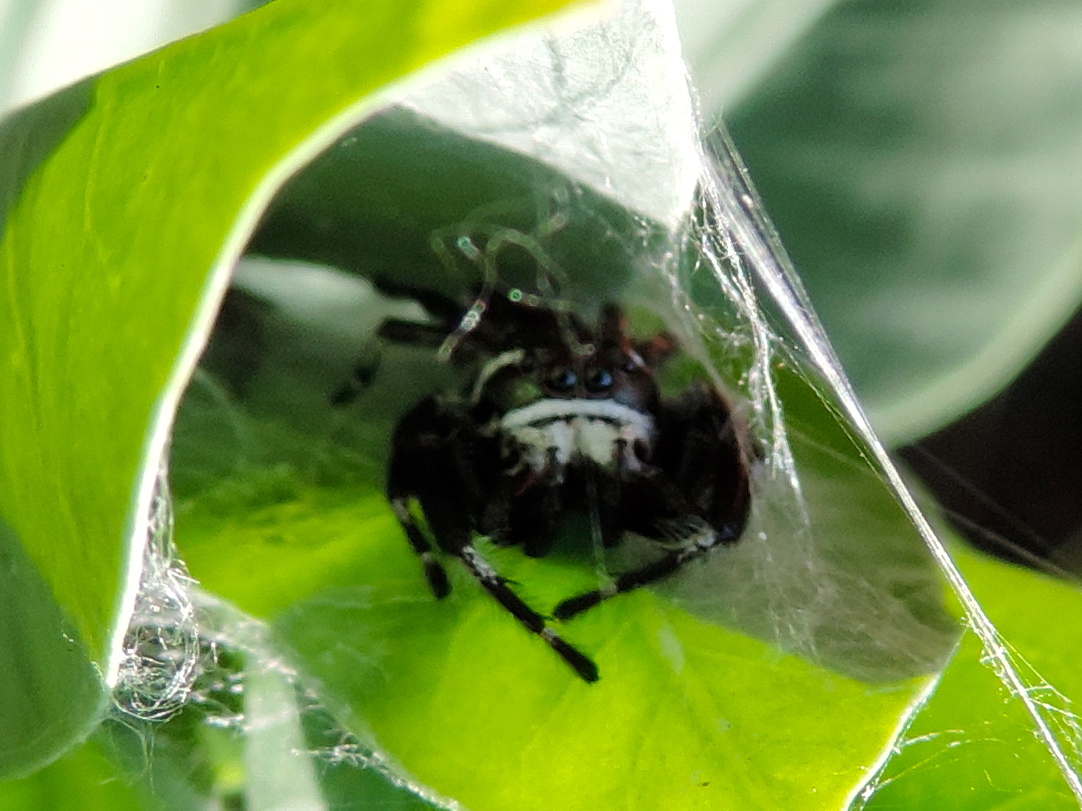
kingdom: Animalia
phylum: Arthropoda
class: Arachnida
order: Araneae
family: Salticidae
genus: Messua
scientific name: Messua
